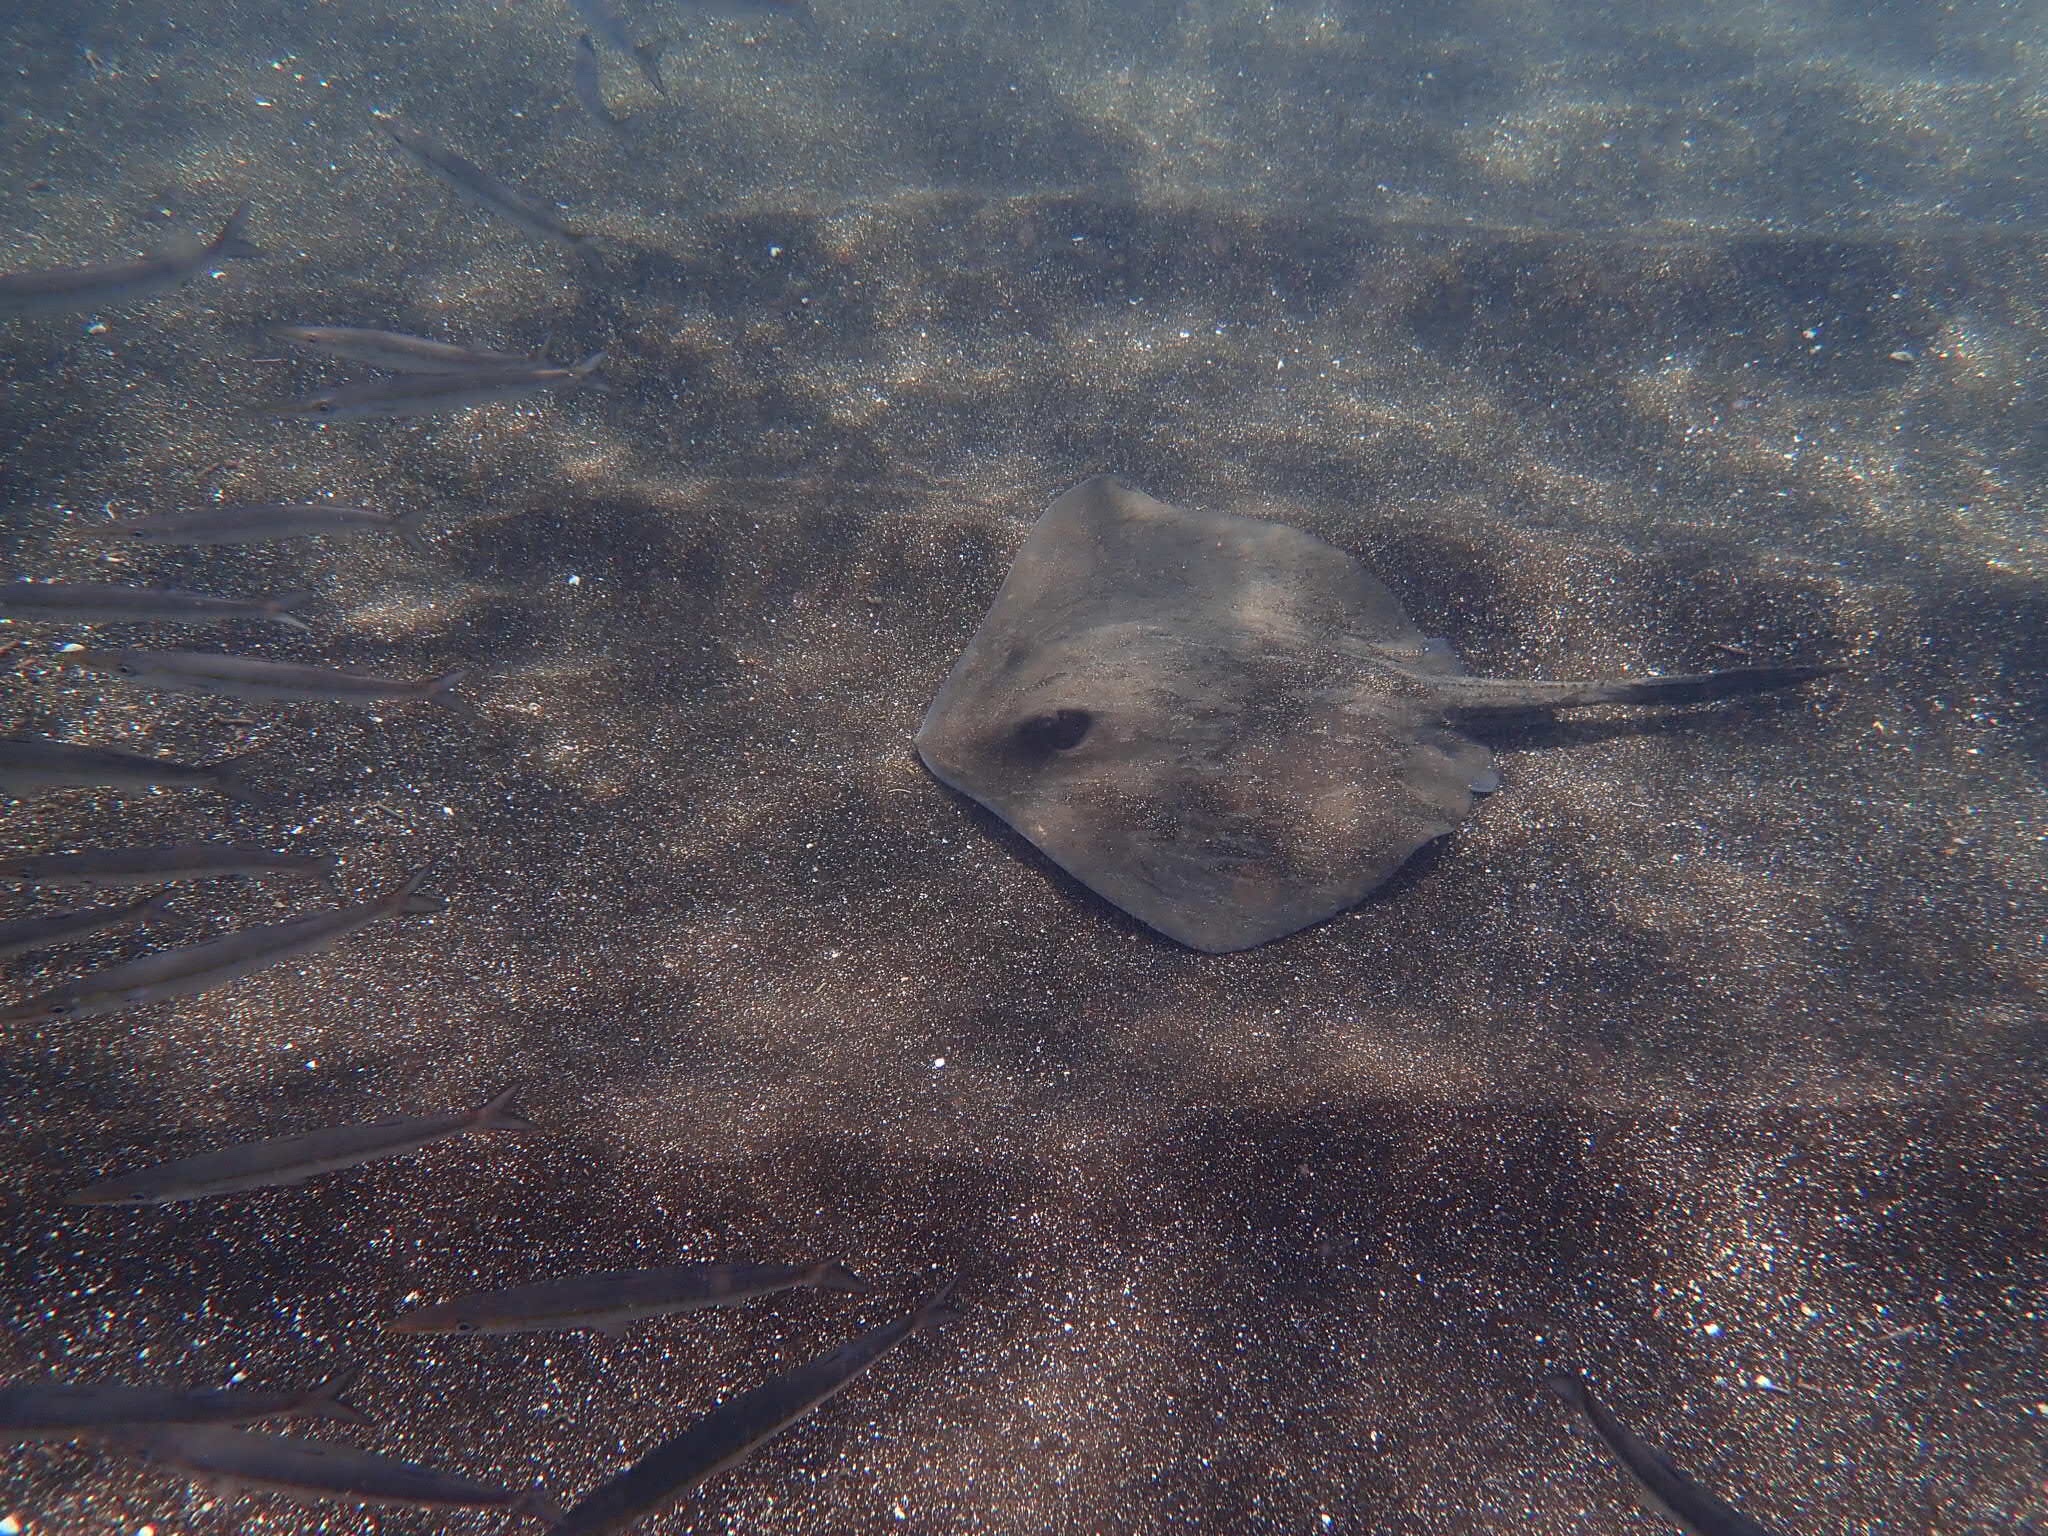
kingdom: Animalia
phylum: Chordata
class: Elasmobranchii
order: Myliobatiformes
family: Dasyatidae
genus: Hypanus
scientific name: Hypanus dipterurus
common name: Diamond stingray
